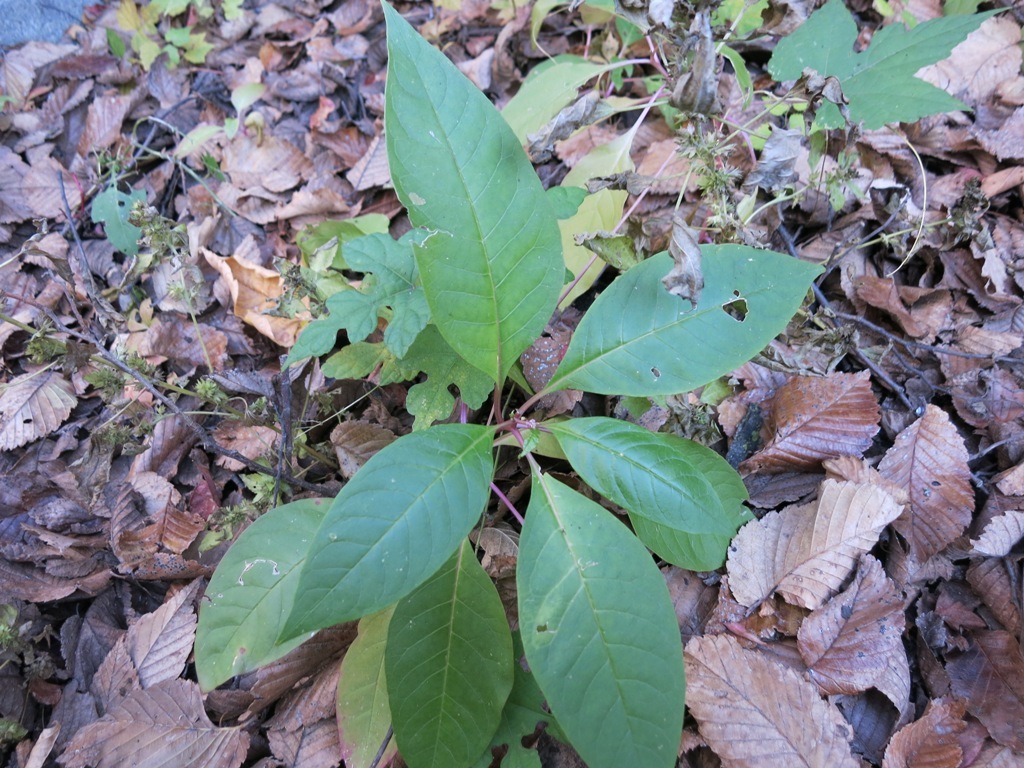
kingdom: Plantae
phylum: Tracheophyta
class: Magnoliopsida
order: Caryophyllales
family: Phytolaccaceae
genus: Phytolacca
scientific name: Phytolacca americana
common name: American pokeweed
